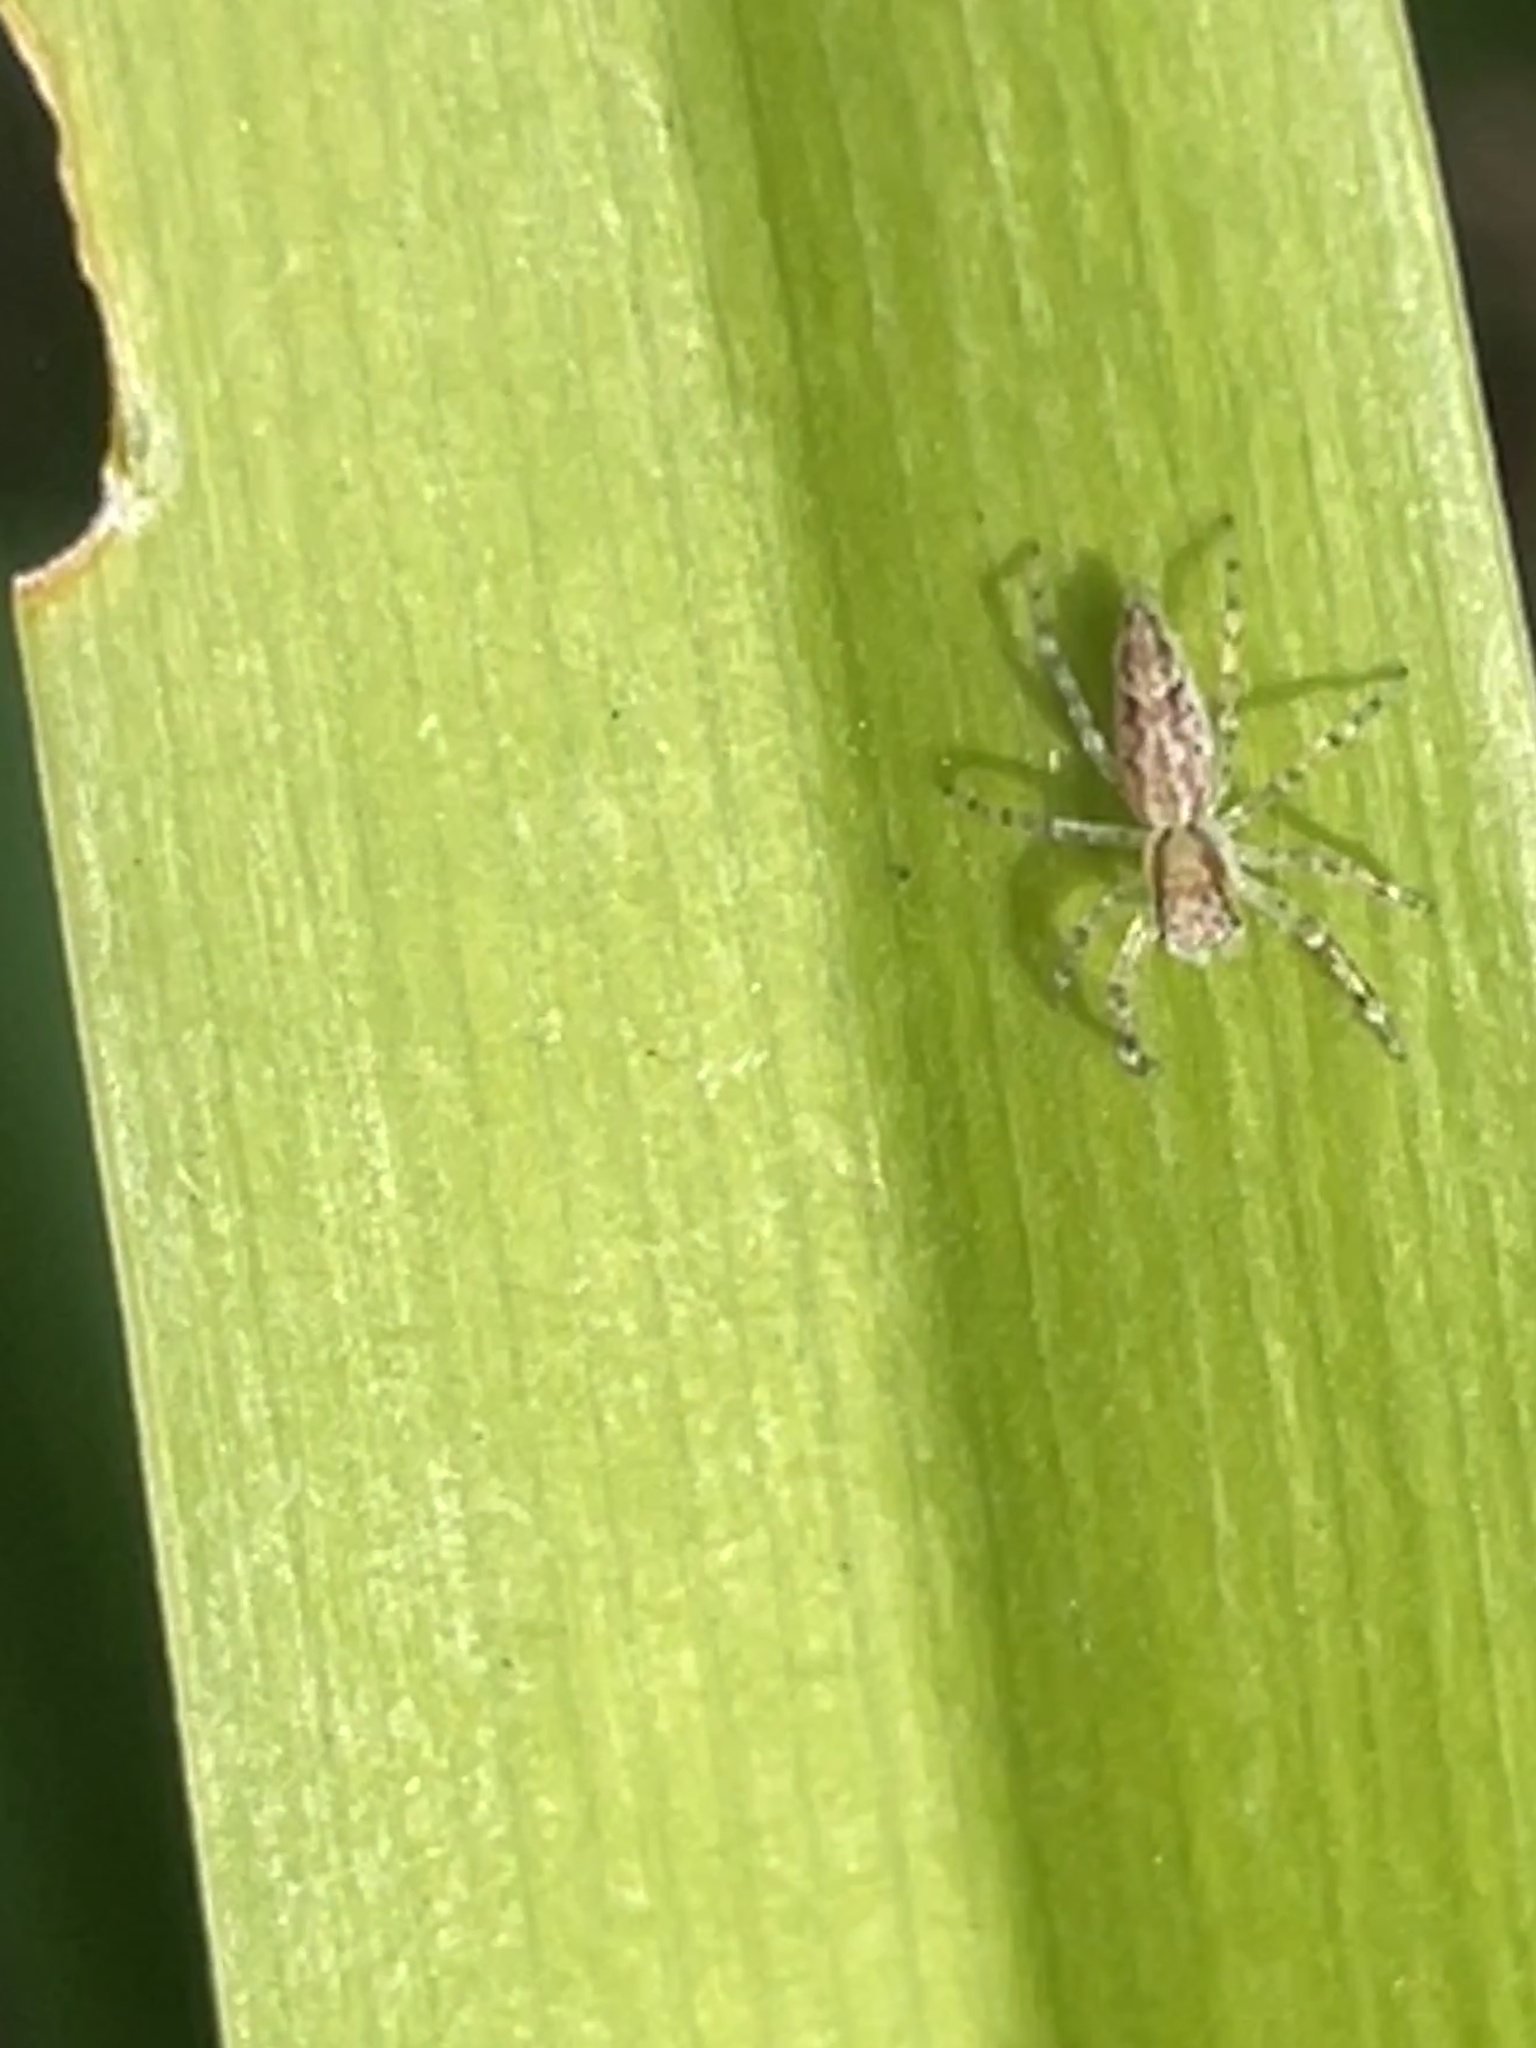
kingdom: Animalia
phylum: Arthropoda
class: Arachnida
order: Araneae
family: Salticidae
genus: Helpis
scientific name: Helpis minitabunda
